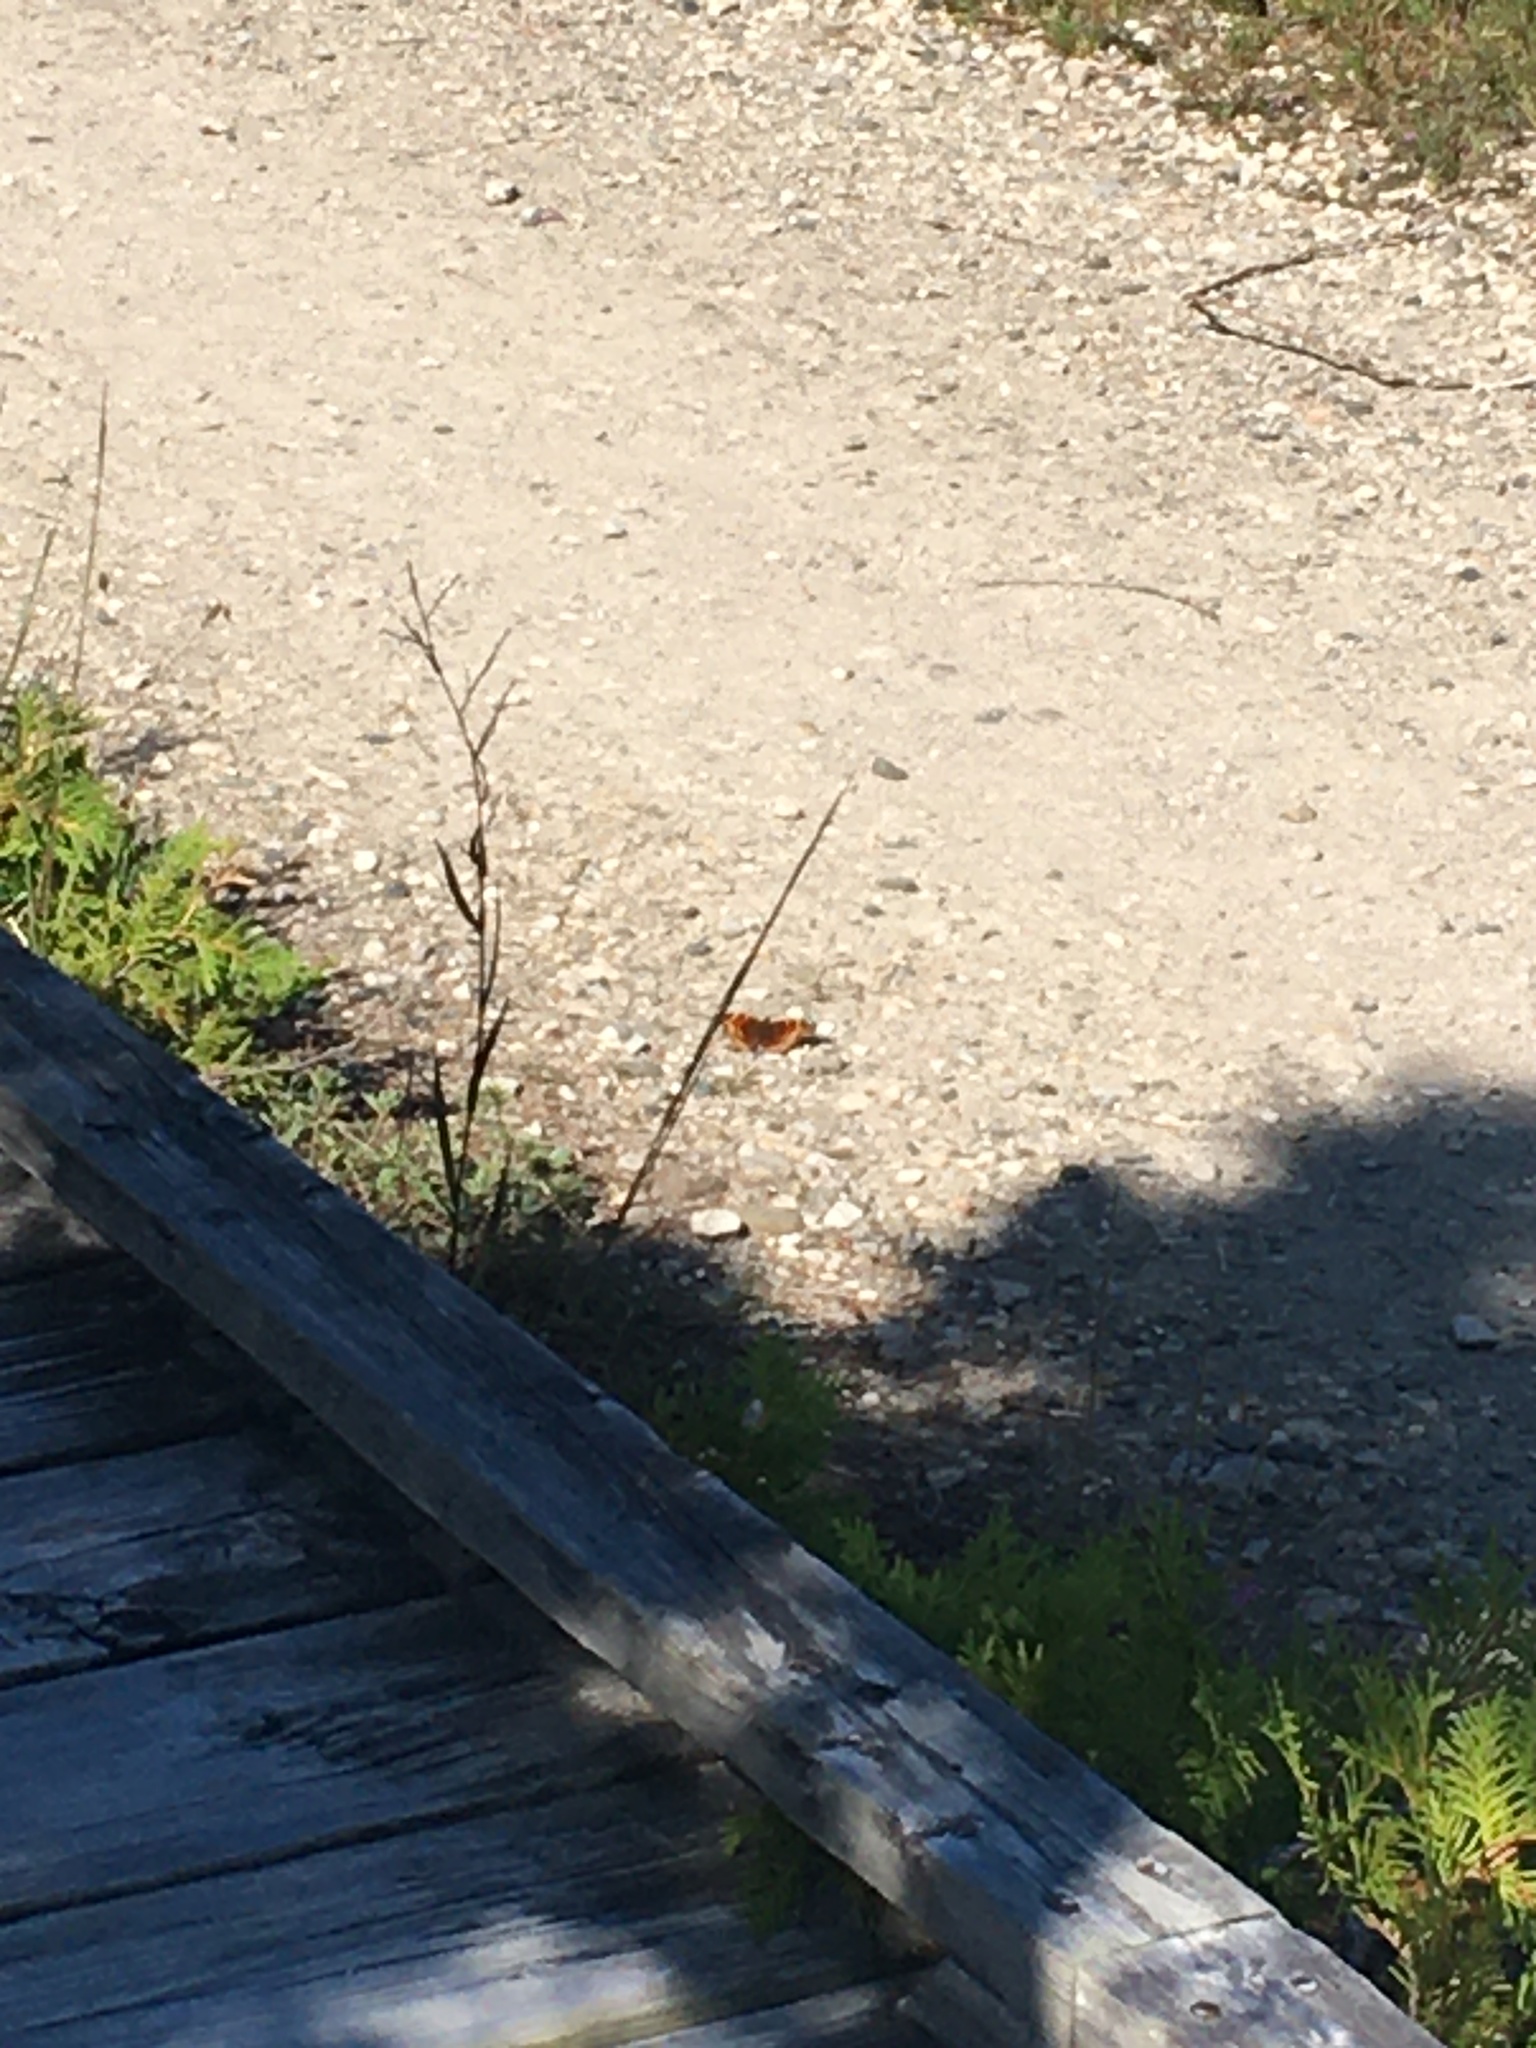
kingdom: Animalia
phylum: Arthropoda
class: Insecta
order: Lepidoptera
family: Nymphalidae
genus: Polygonia
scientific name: Polygonia vaualbum
